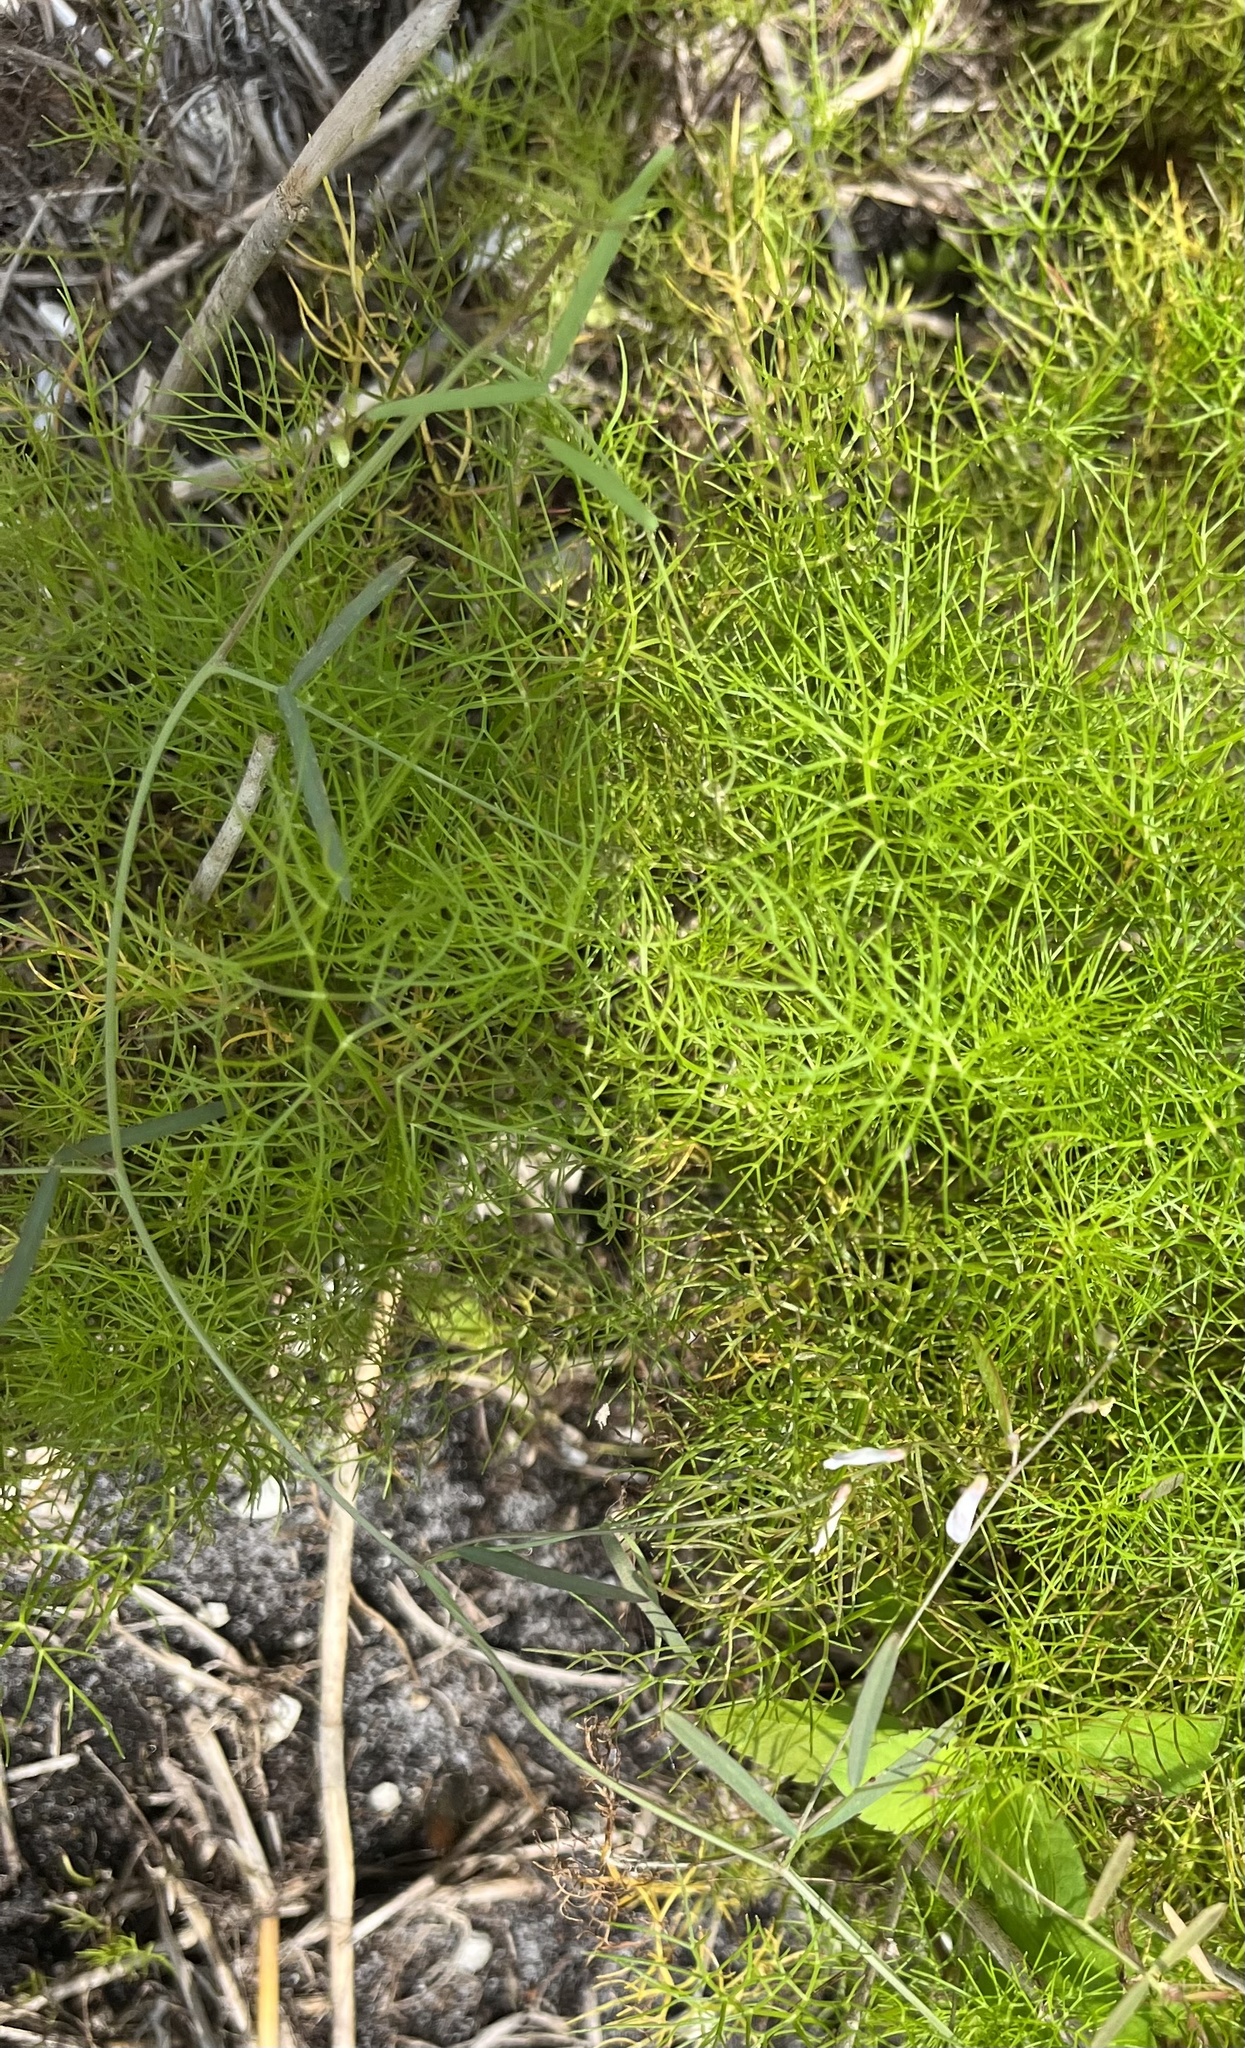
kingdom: Plantae
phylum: Tracheophyta
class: Magnoliopsida
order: Fabales
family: Fabaceae
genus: Vicia
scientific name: Vicia acutifolia
